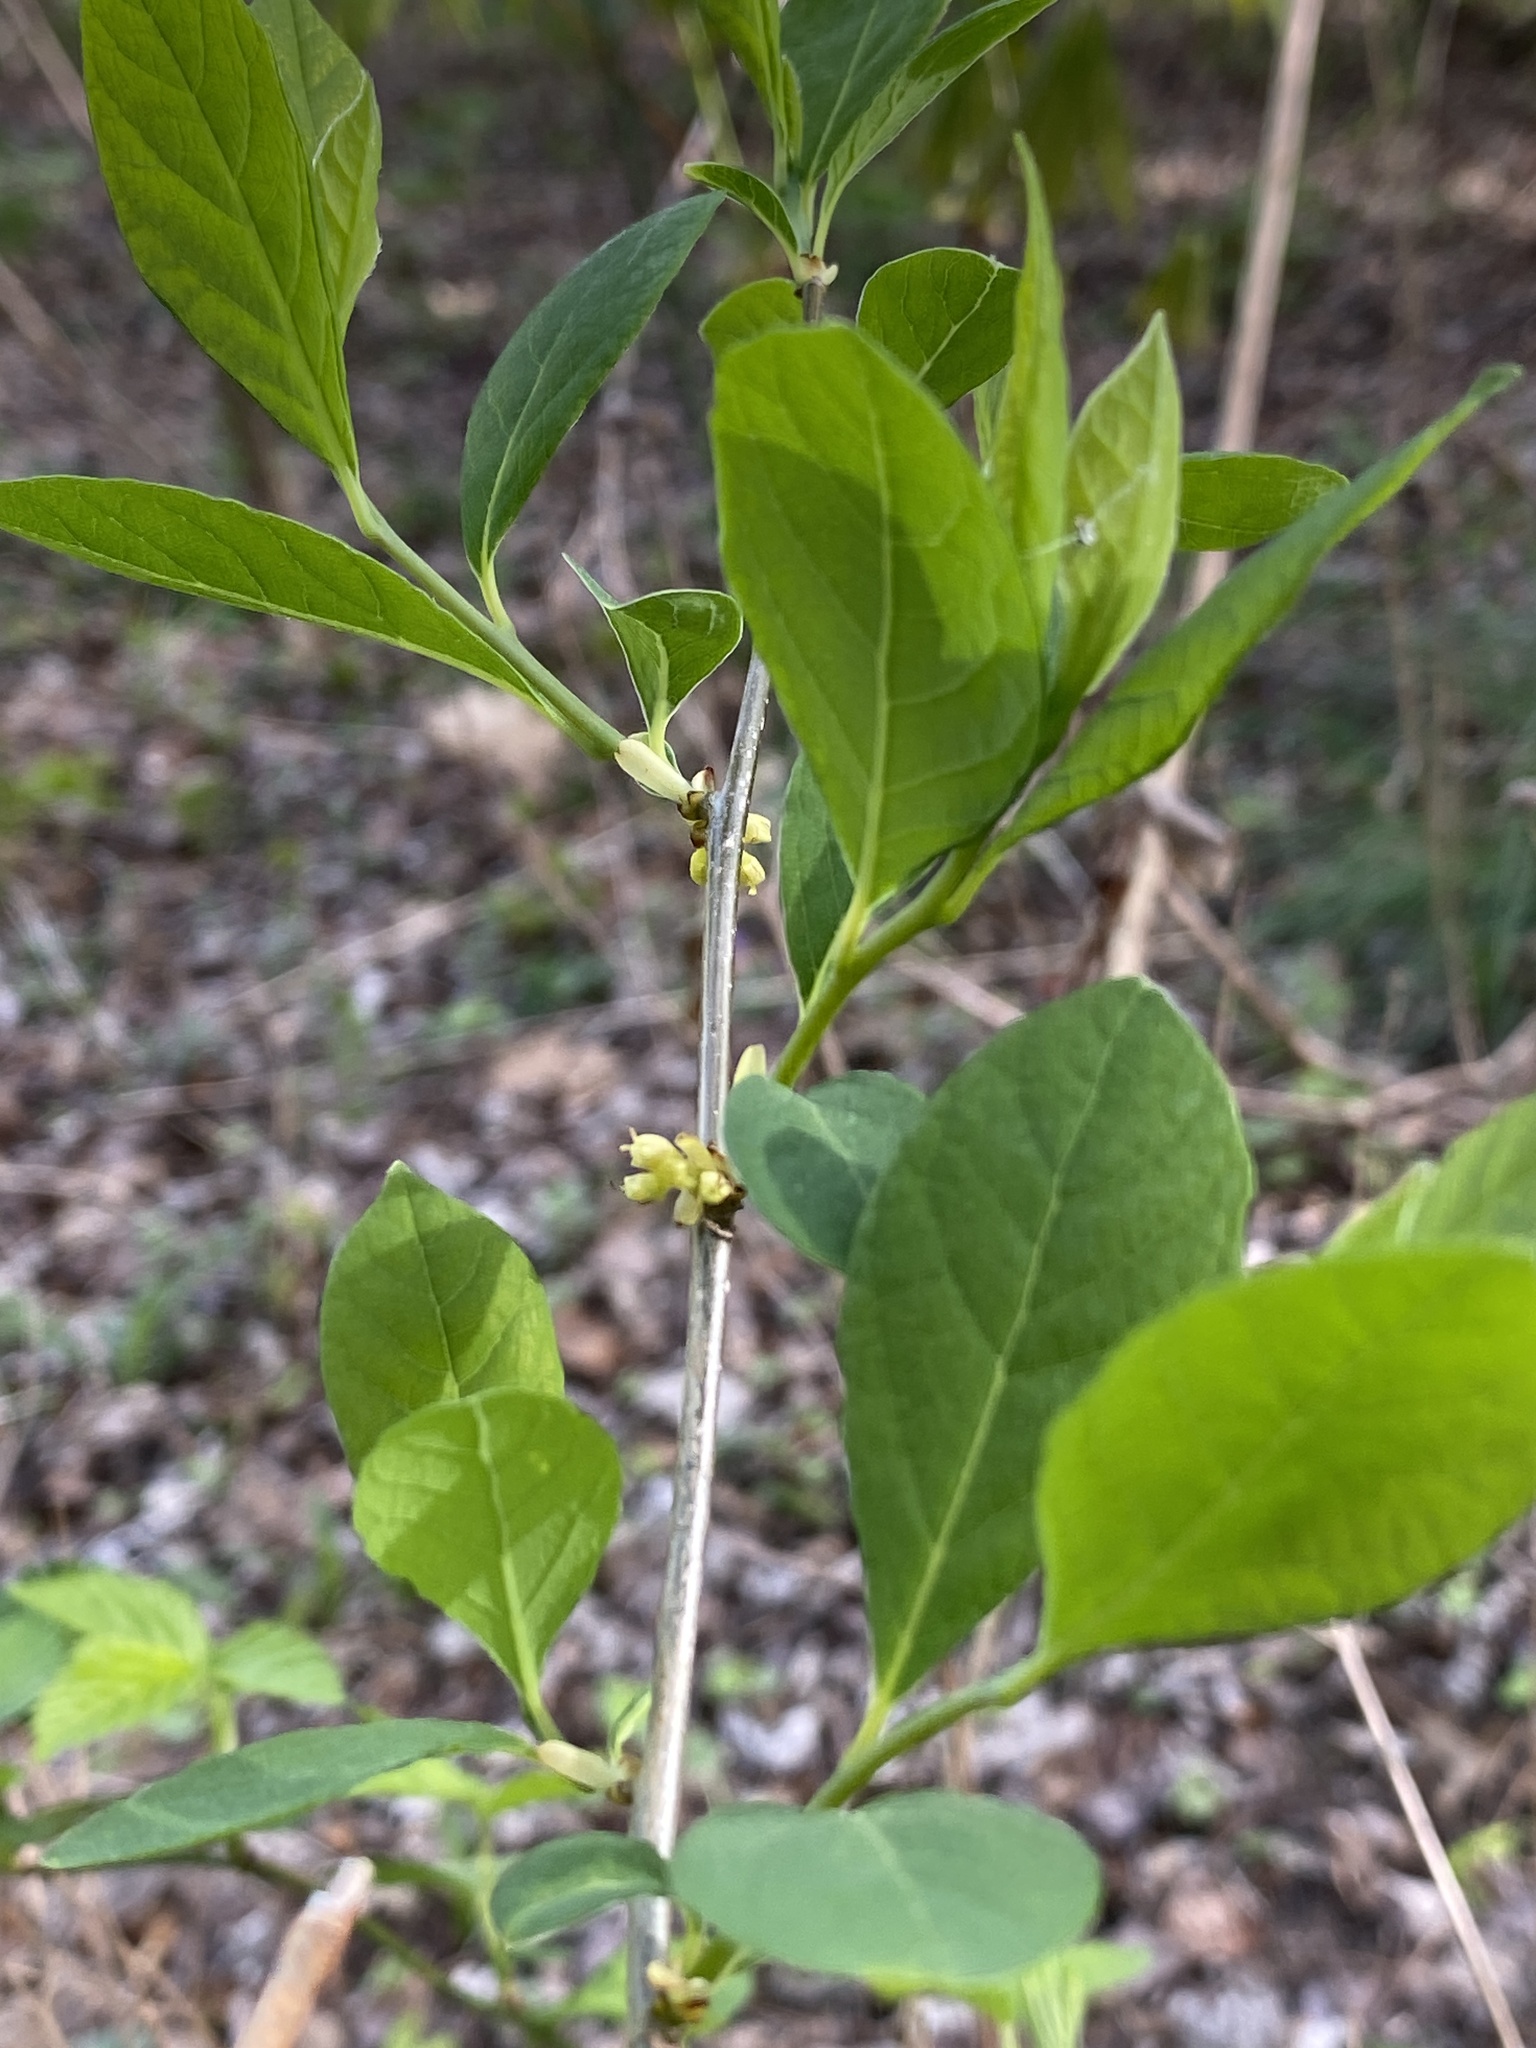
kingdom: Plantae
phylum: Tracheophyta
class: Magnoliopsida
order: Laurales
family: Lauraceae
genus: Lindera
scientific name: Lindera benzoin
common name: Spicebush
